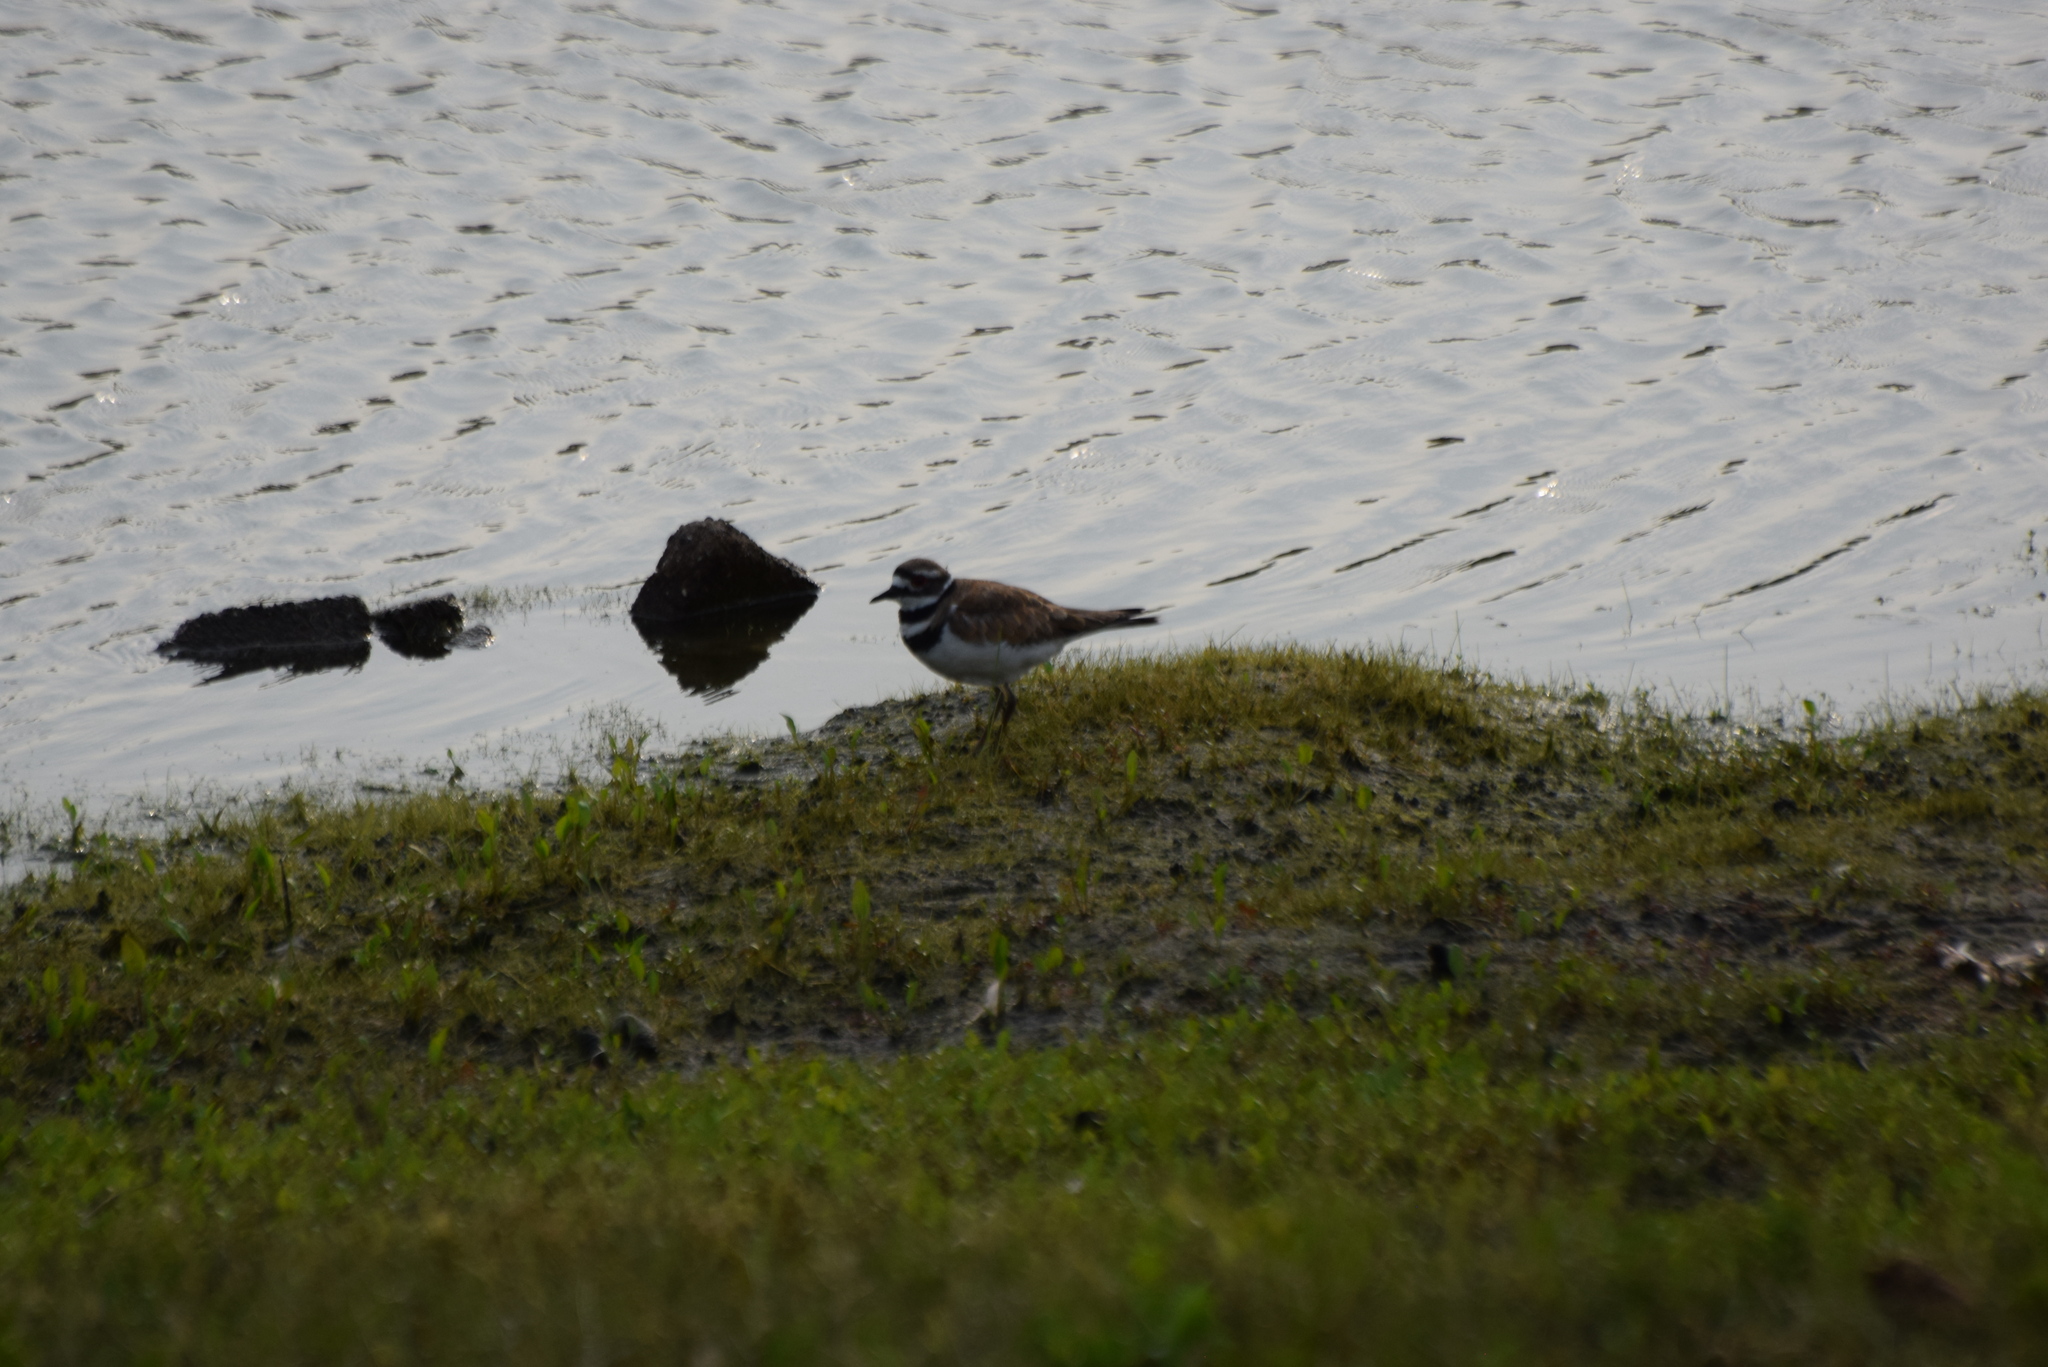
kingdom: Animalia
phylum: Chordata
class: Aves
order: Charadriiformes
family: Charadriidae
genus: Charadrius
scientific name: Charadrius vociferus
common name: Killdeer
